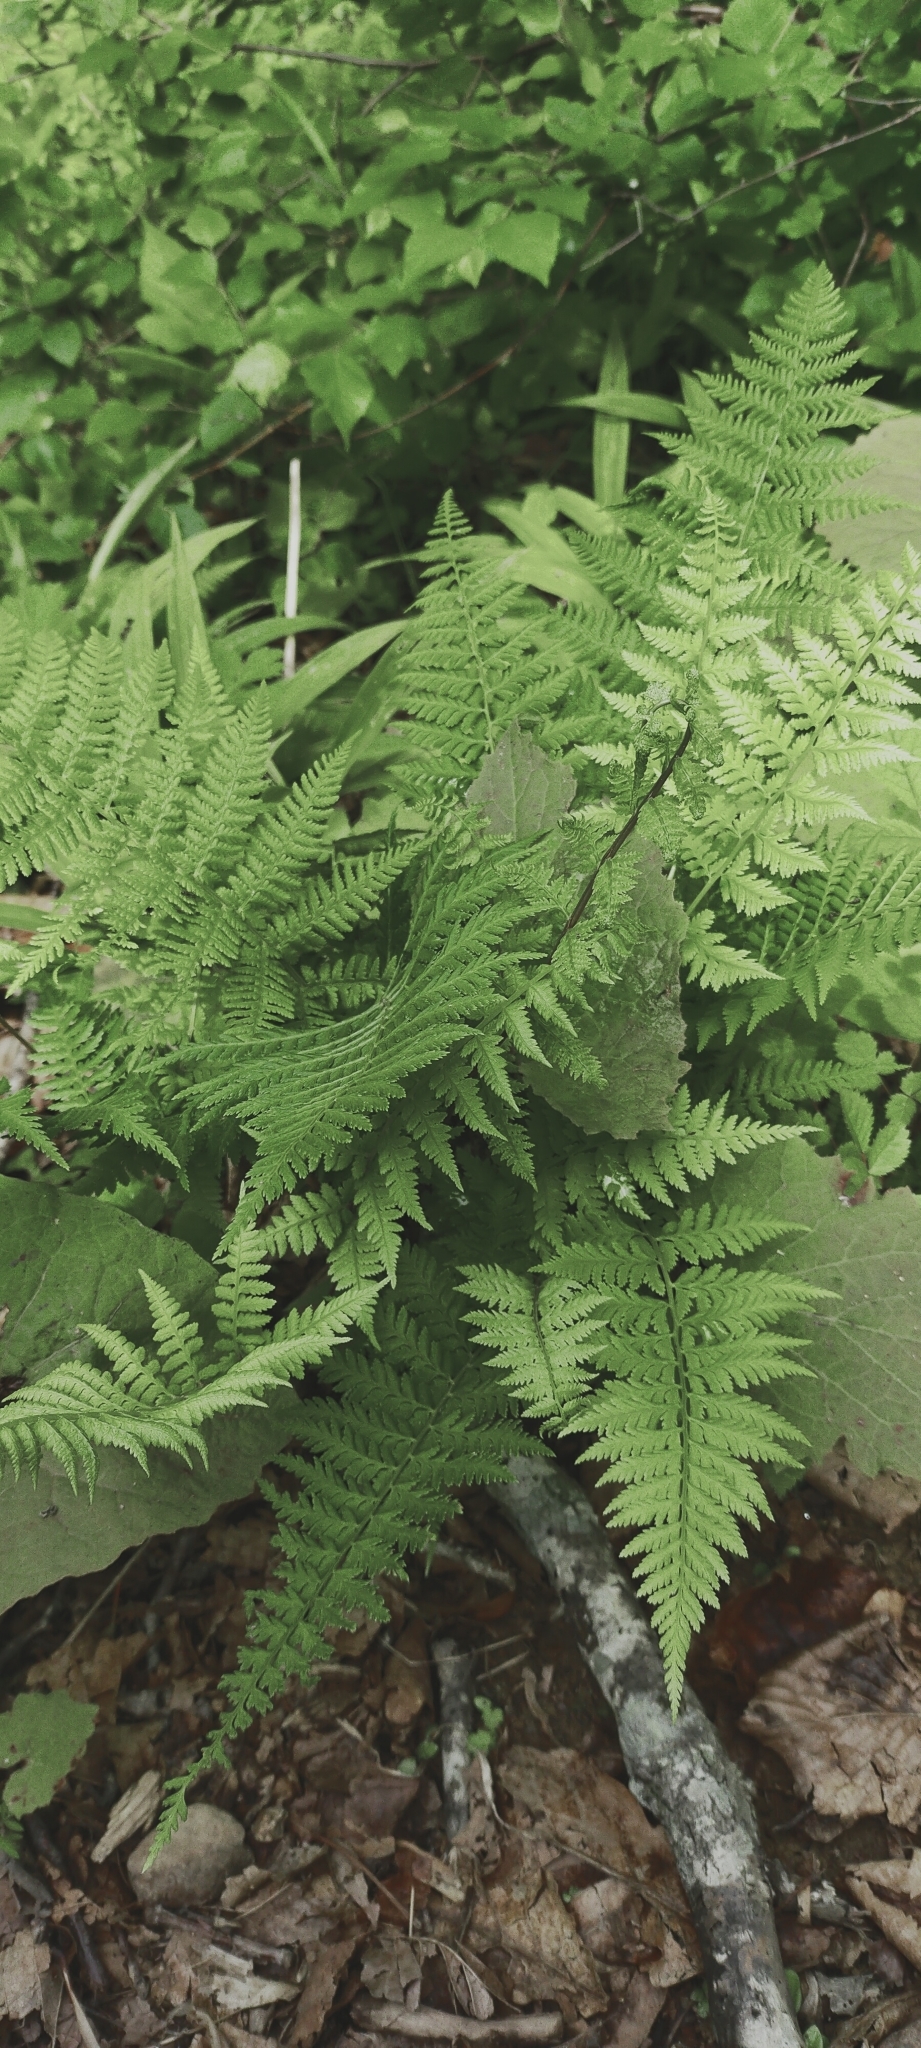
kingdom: Plantae
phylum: Tracheophyta
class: Polypodiopsida
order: Polypodiales
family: Athyriaceae
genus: Athyrium
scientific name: Athyrium filix-femina
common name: Lady fern
